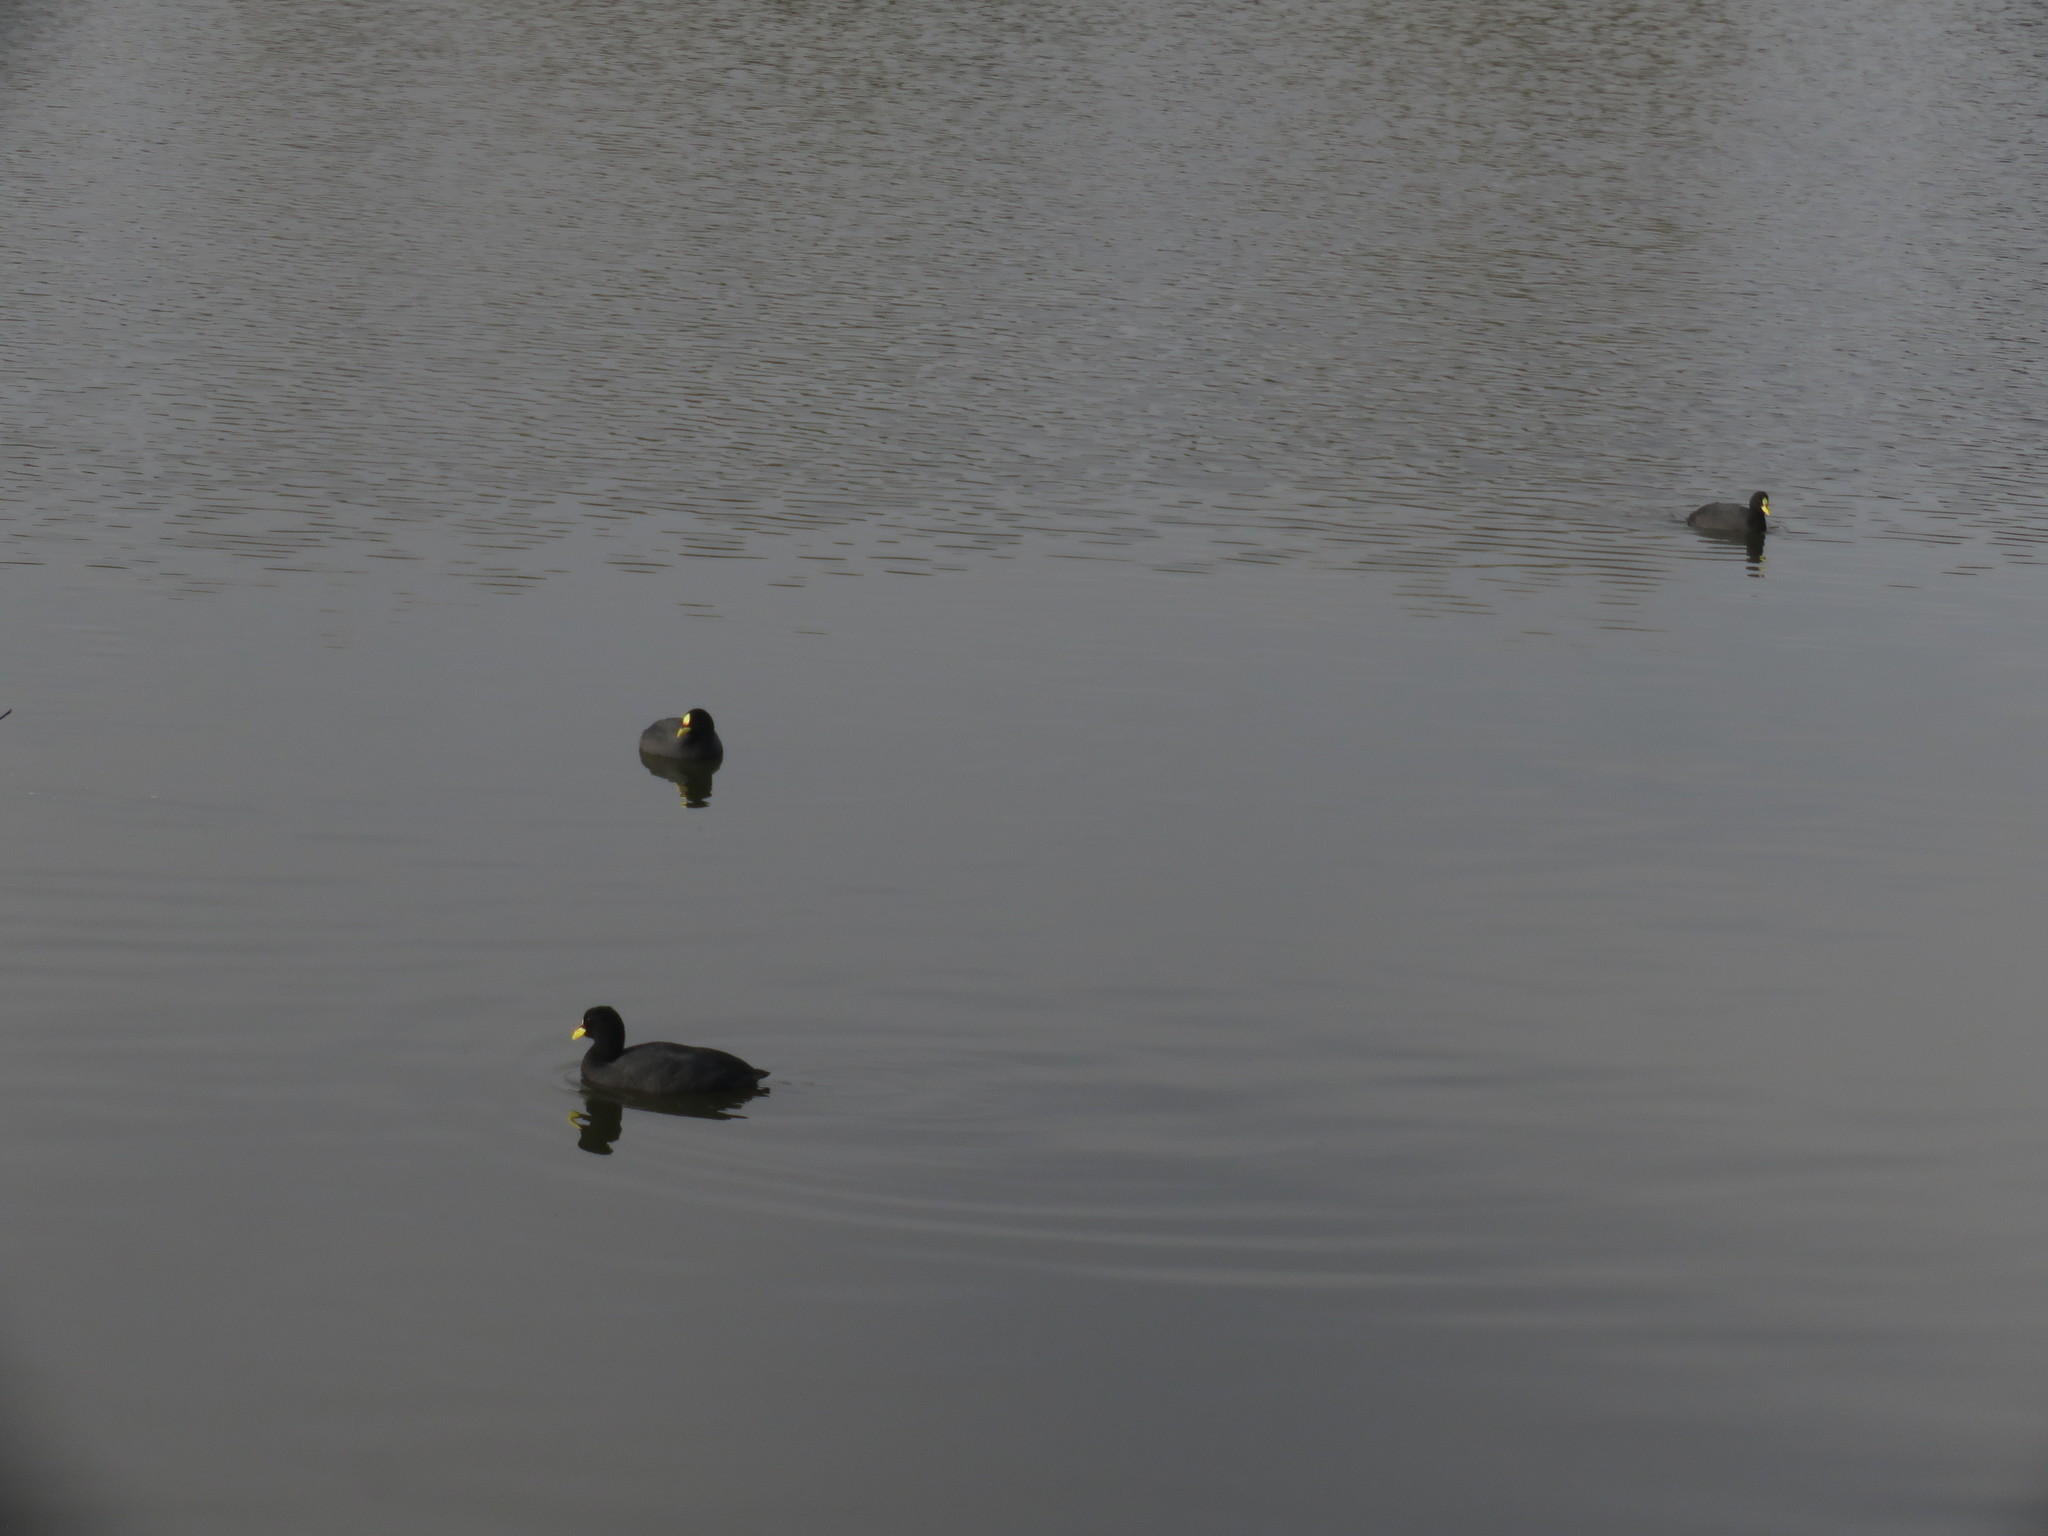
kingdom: Animalia
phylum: Chordata
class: Aves
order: Gruiformes
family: Rallidae
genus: Fulica
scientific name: Fulica armillata
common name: Red-gartered coot
